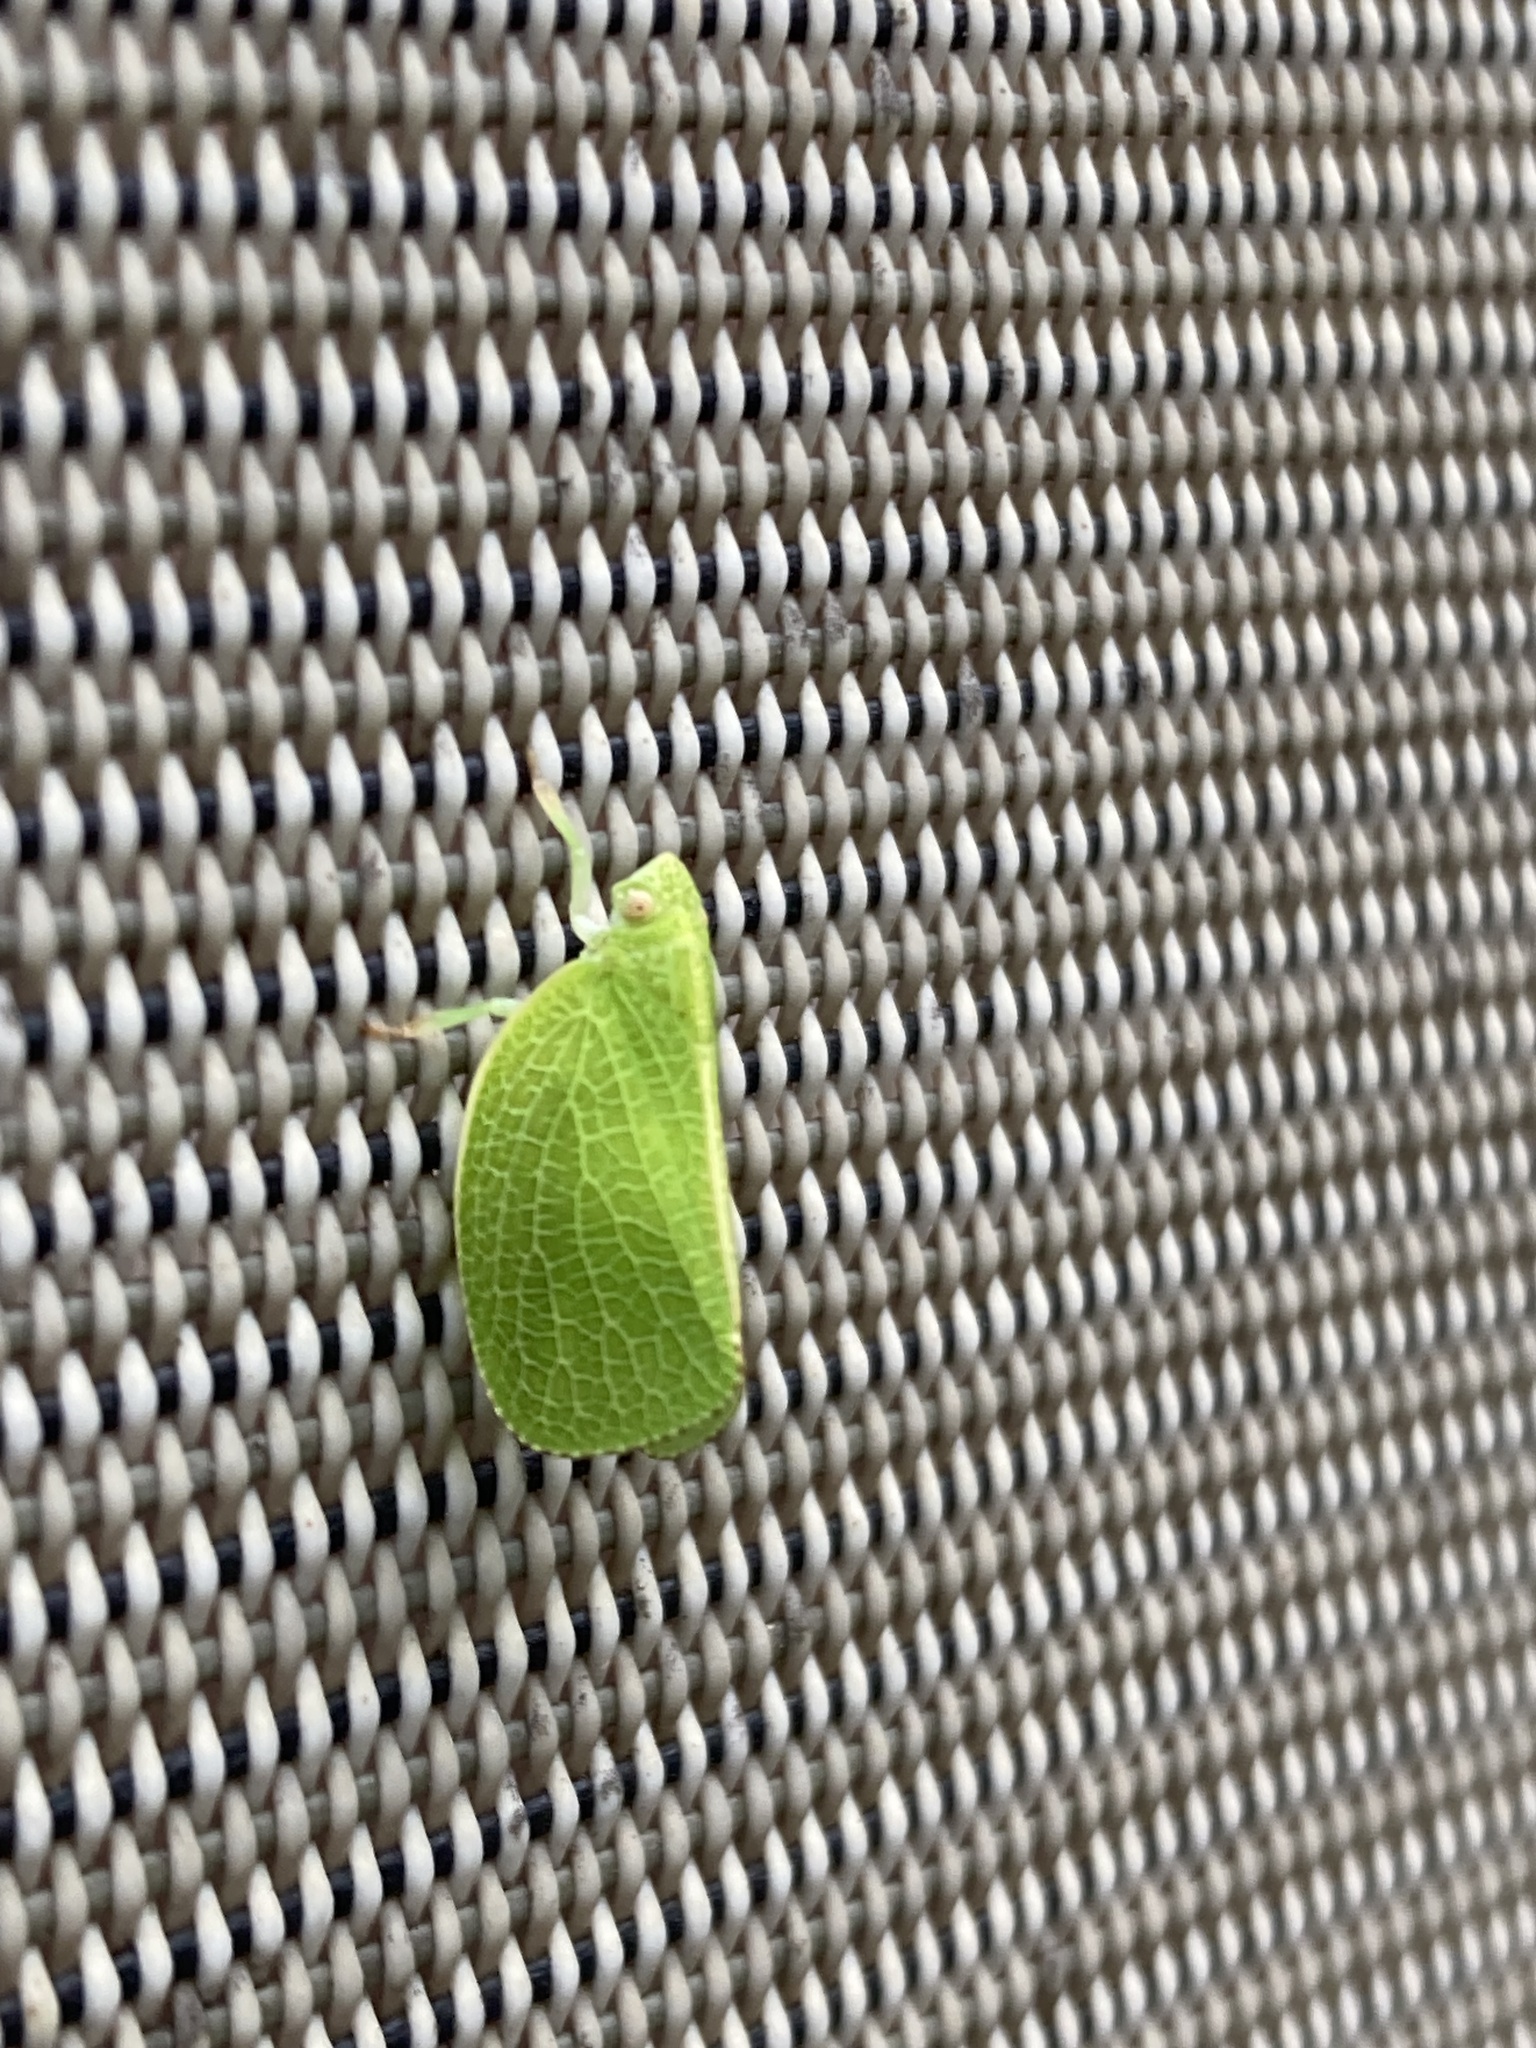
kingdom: Animalia
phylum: Arthropoda
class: Insecta
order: Hemiptera
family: Acanaloniidae
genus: Acanalonia
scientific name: Acanalonia conica
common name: Green cone-headed planthopper
